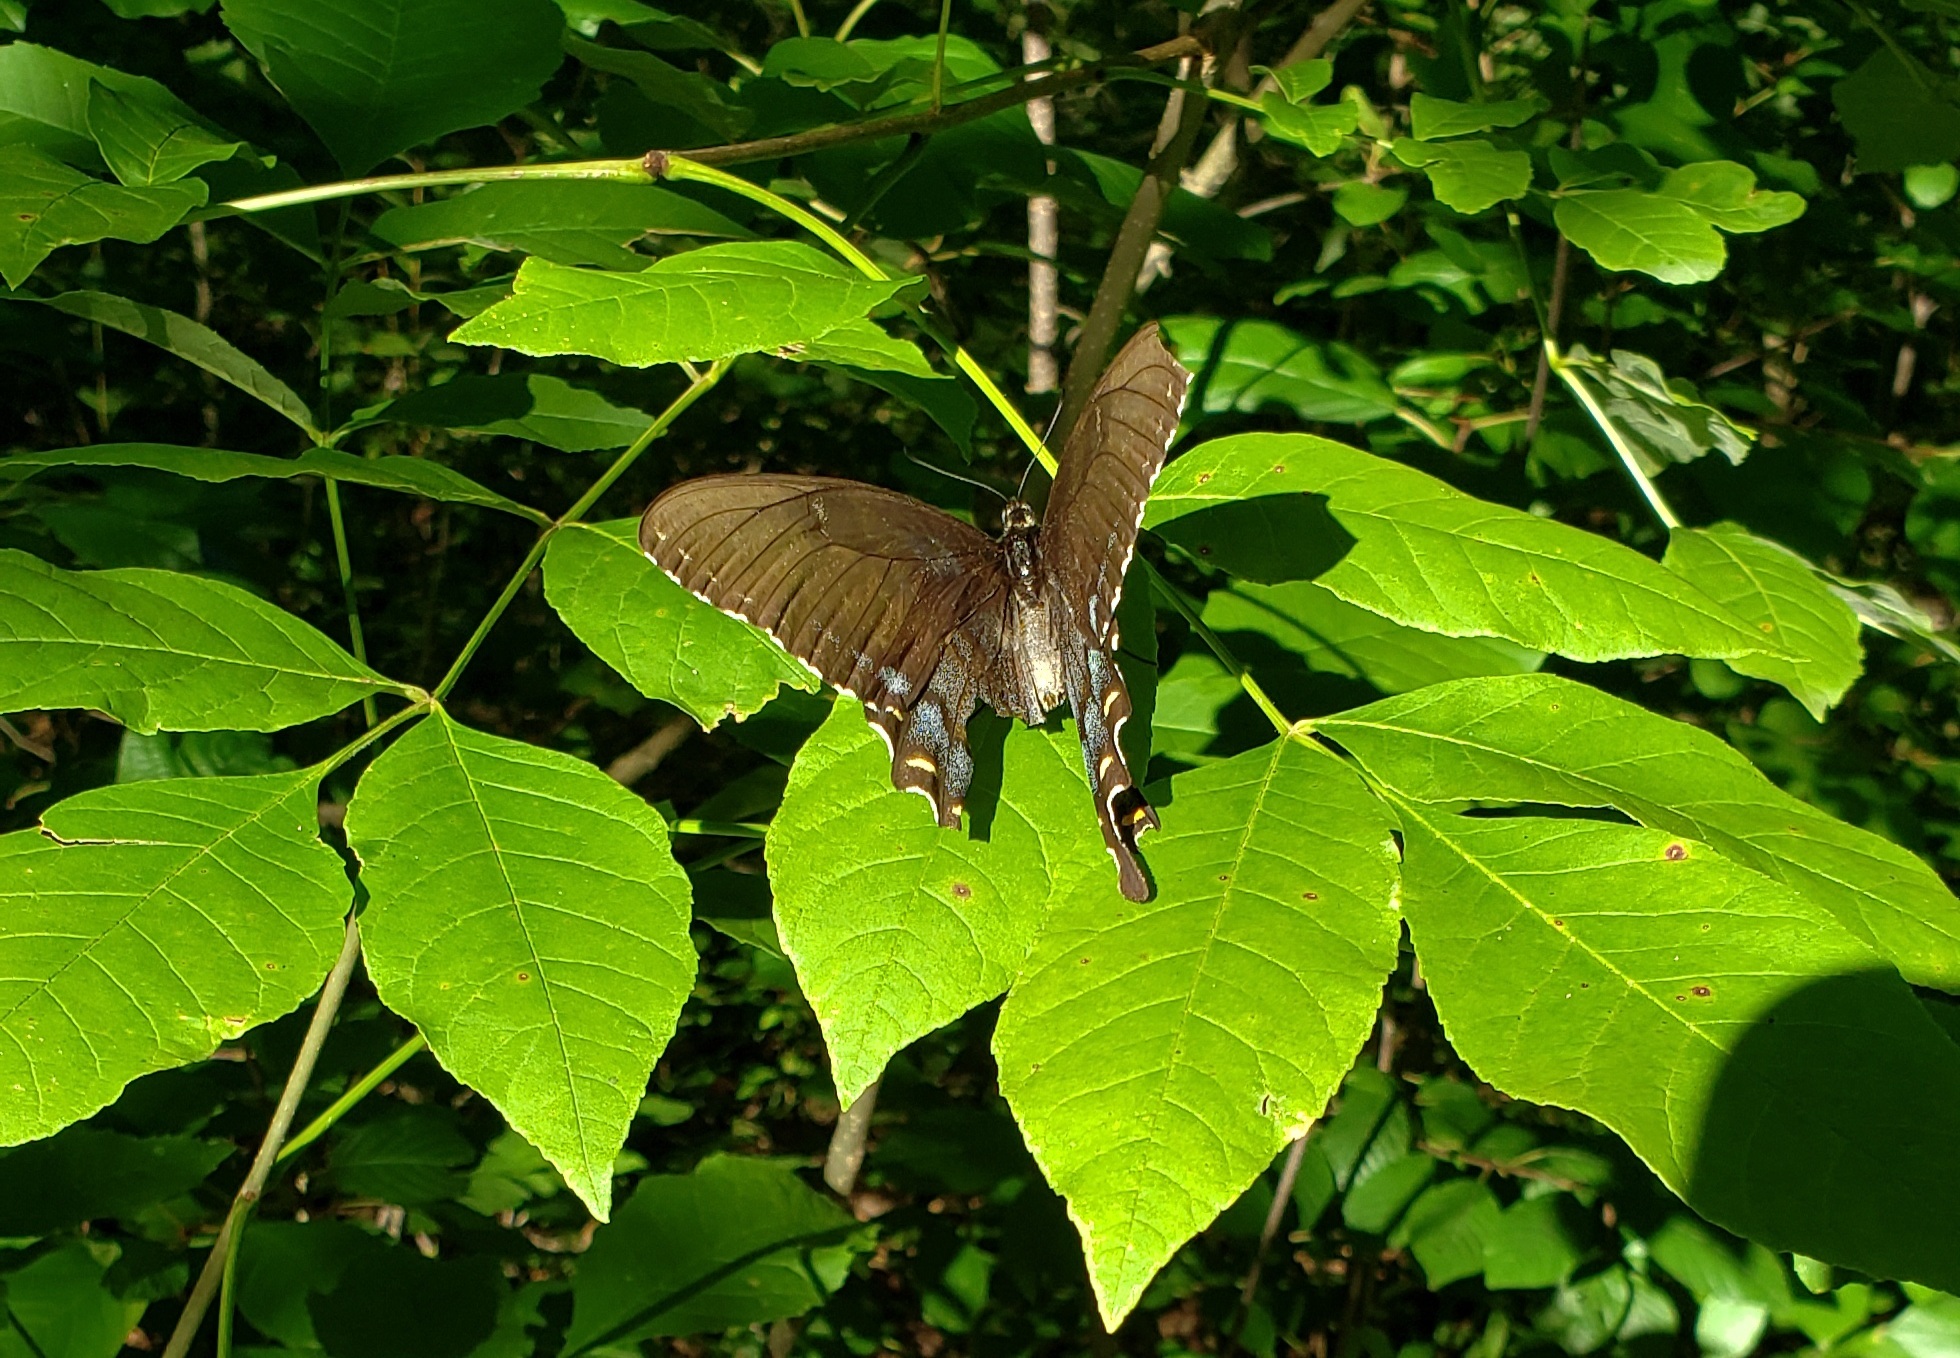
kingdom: Animalia
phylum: Arthropoda
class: Insecta
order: Lepidoptera
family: Papilionidae
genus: Papilio
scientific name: Papilio glaucus
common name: Tiger swallowtail
